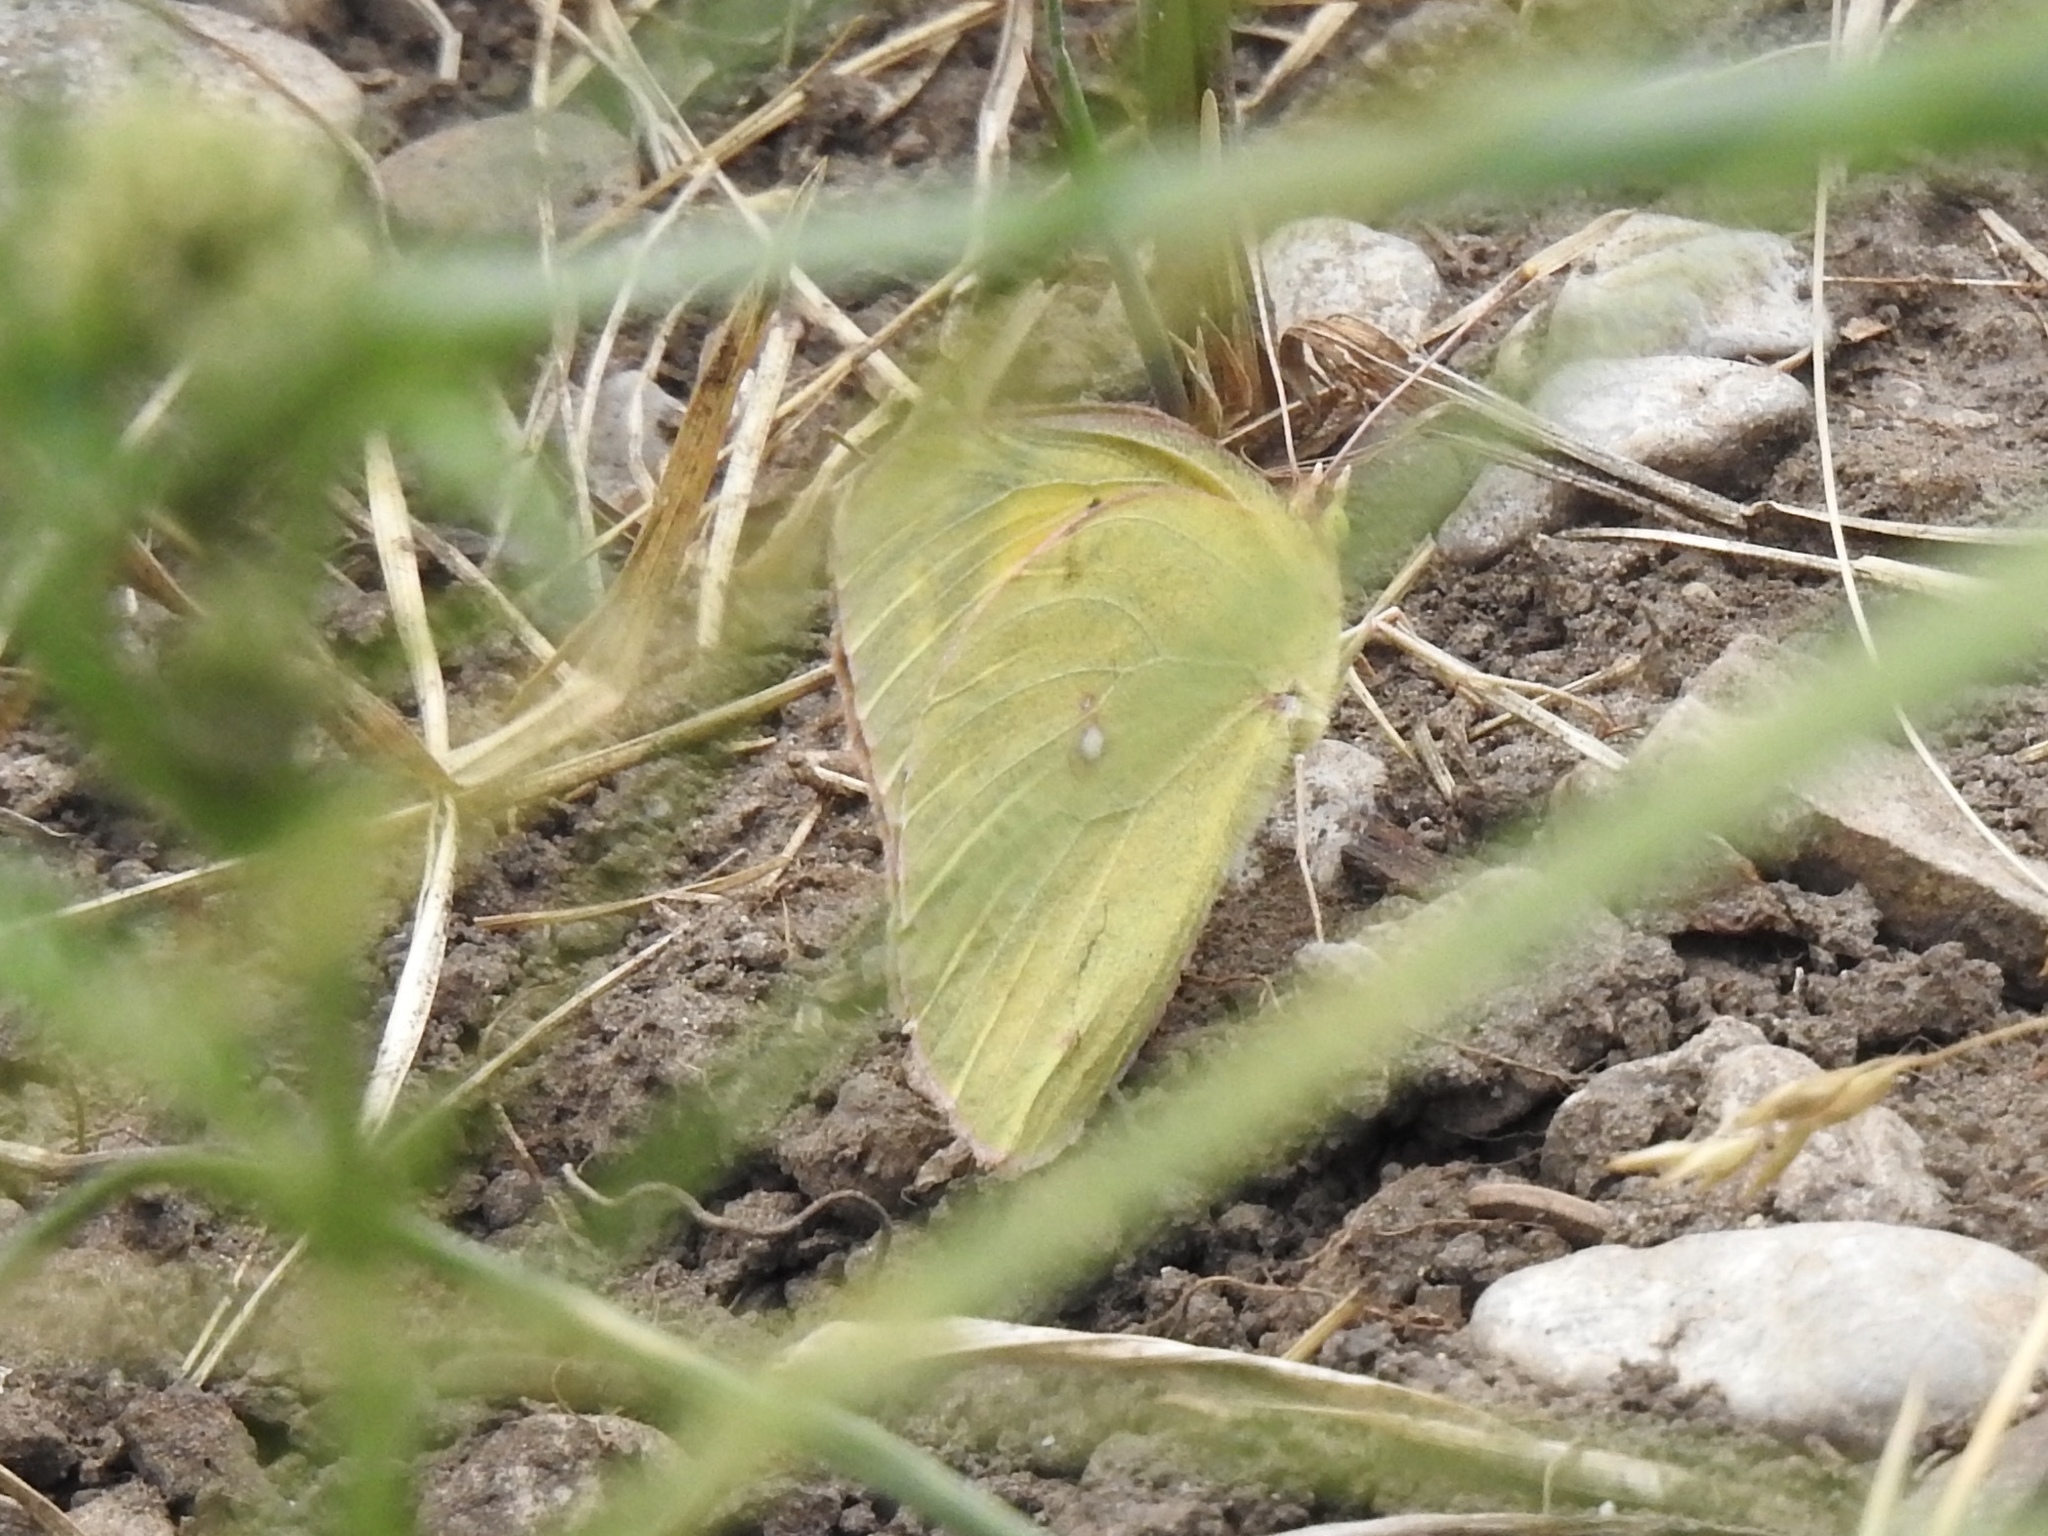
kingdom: Animalia
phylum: Arthropoda
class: Insecta
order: Lepidoptera
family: Pieridae
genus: Colias
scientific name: Colias eurytheme
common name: Alfalfa butterfly
